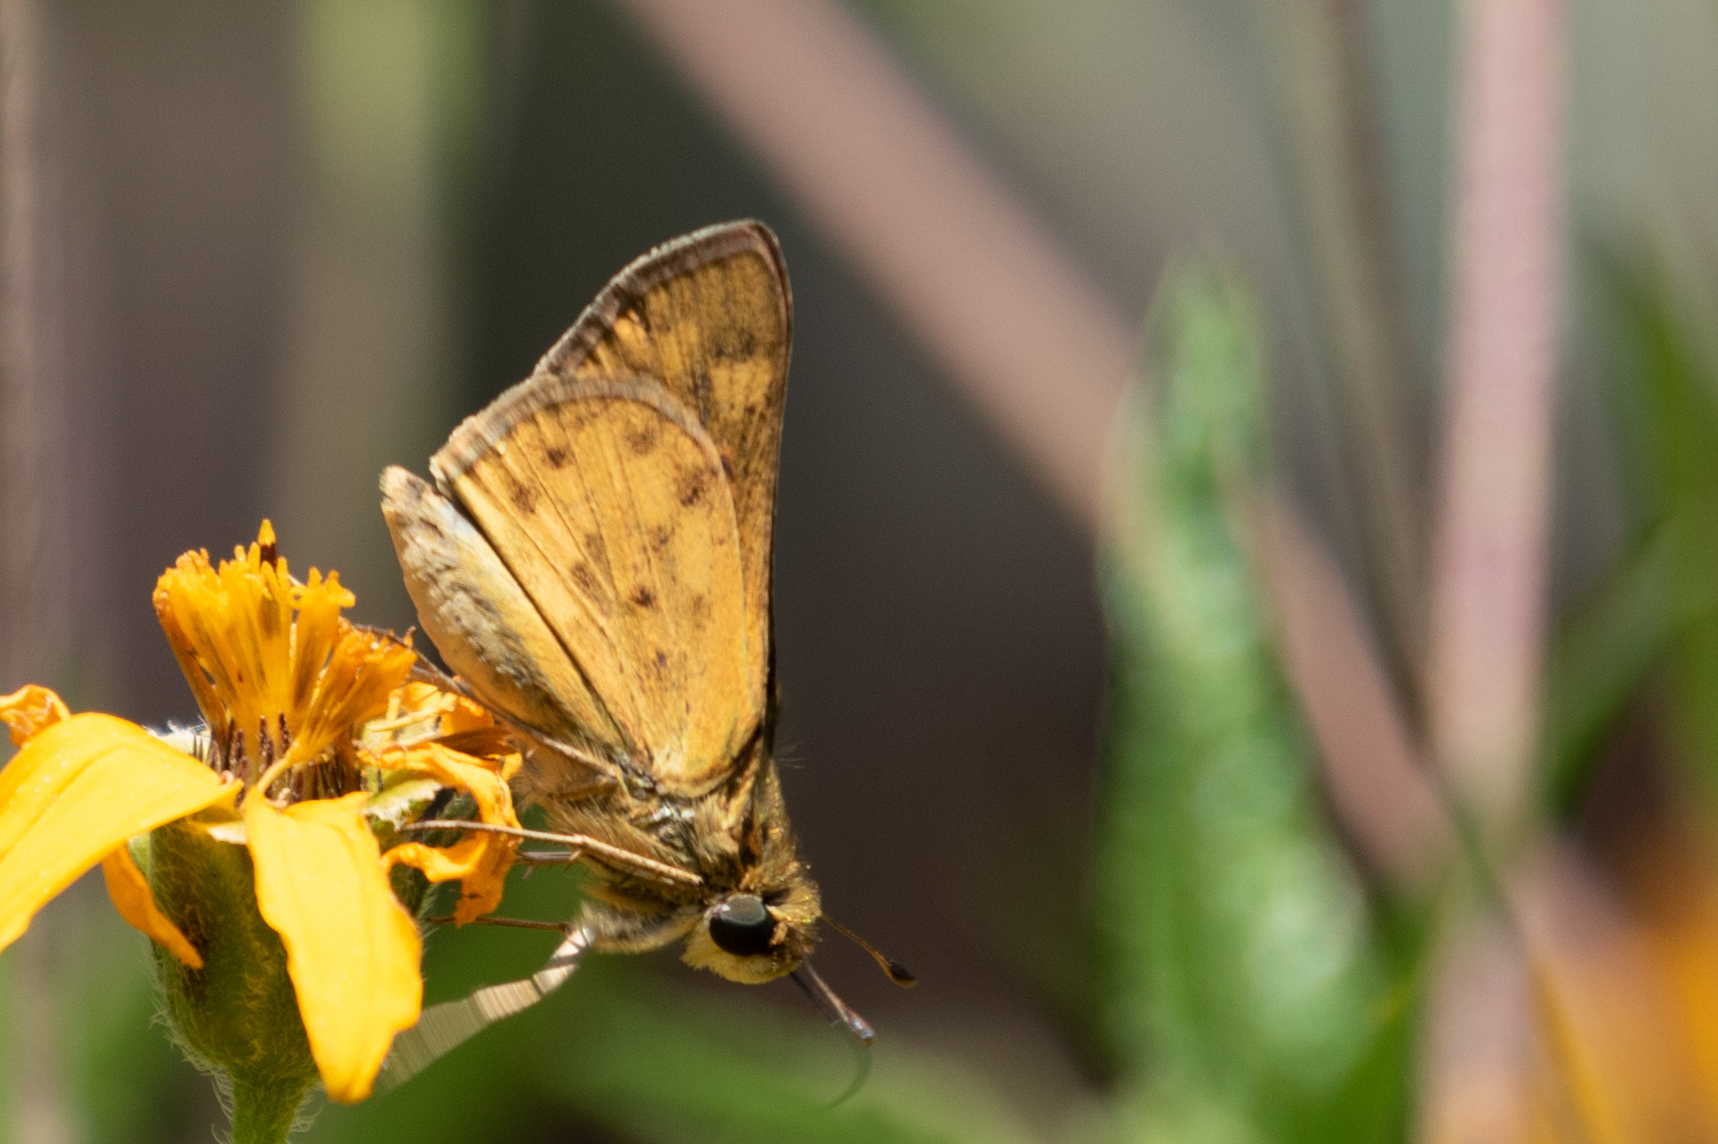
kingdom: Animalia
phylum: Arthropoda
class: Insecta
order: Lepidoptera
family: Hesperiidae
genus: Hylephila
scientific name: Hylephila phyleus
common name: Fiery skipper
